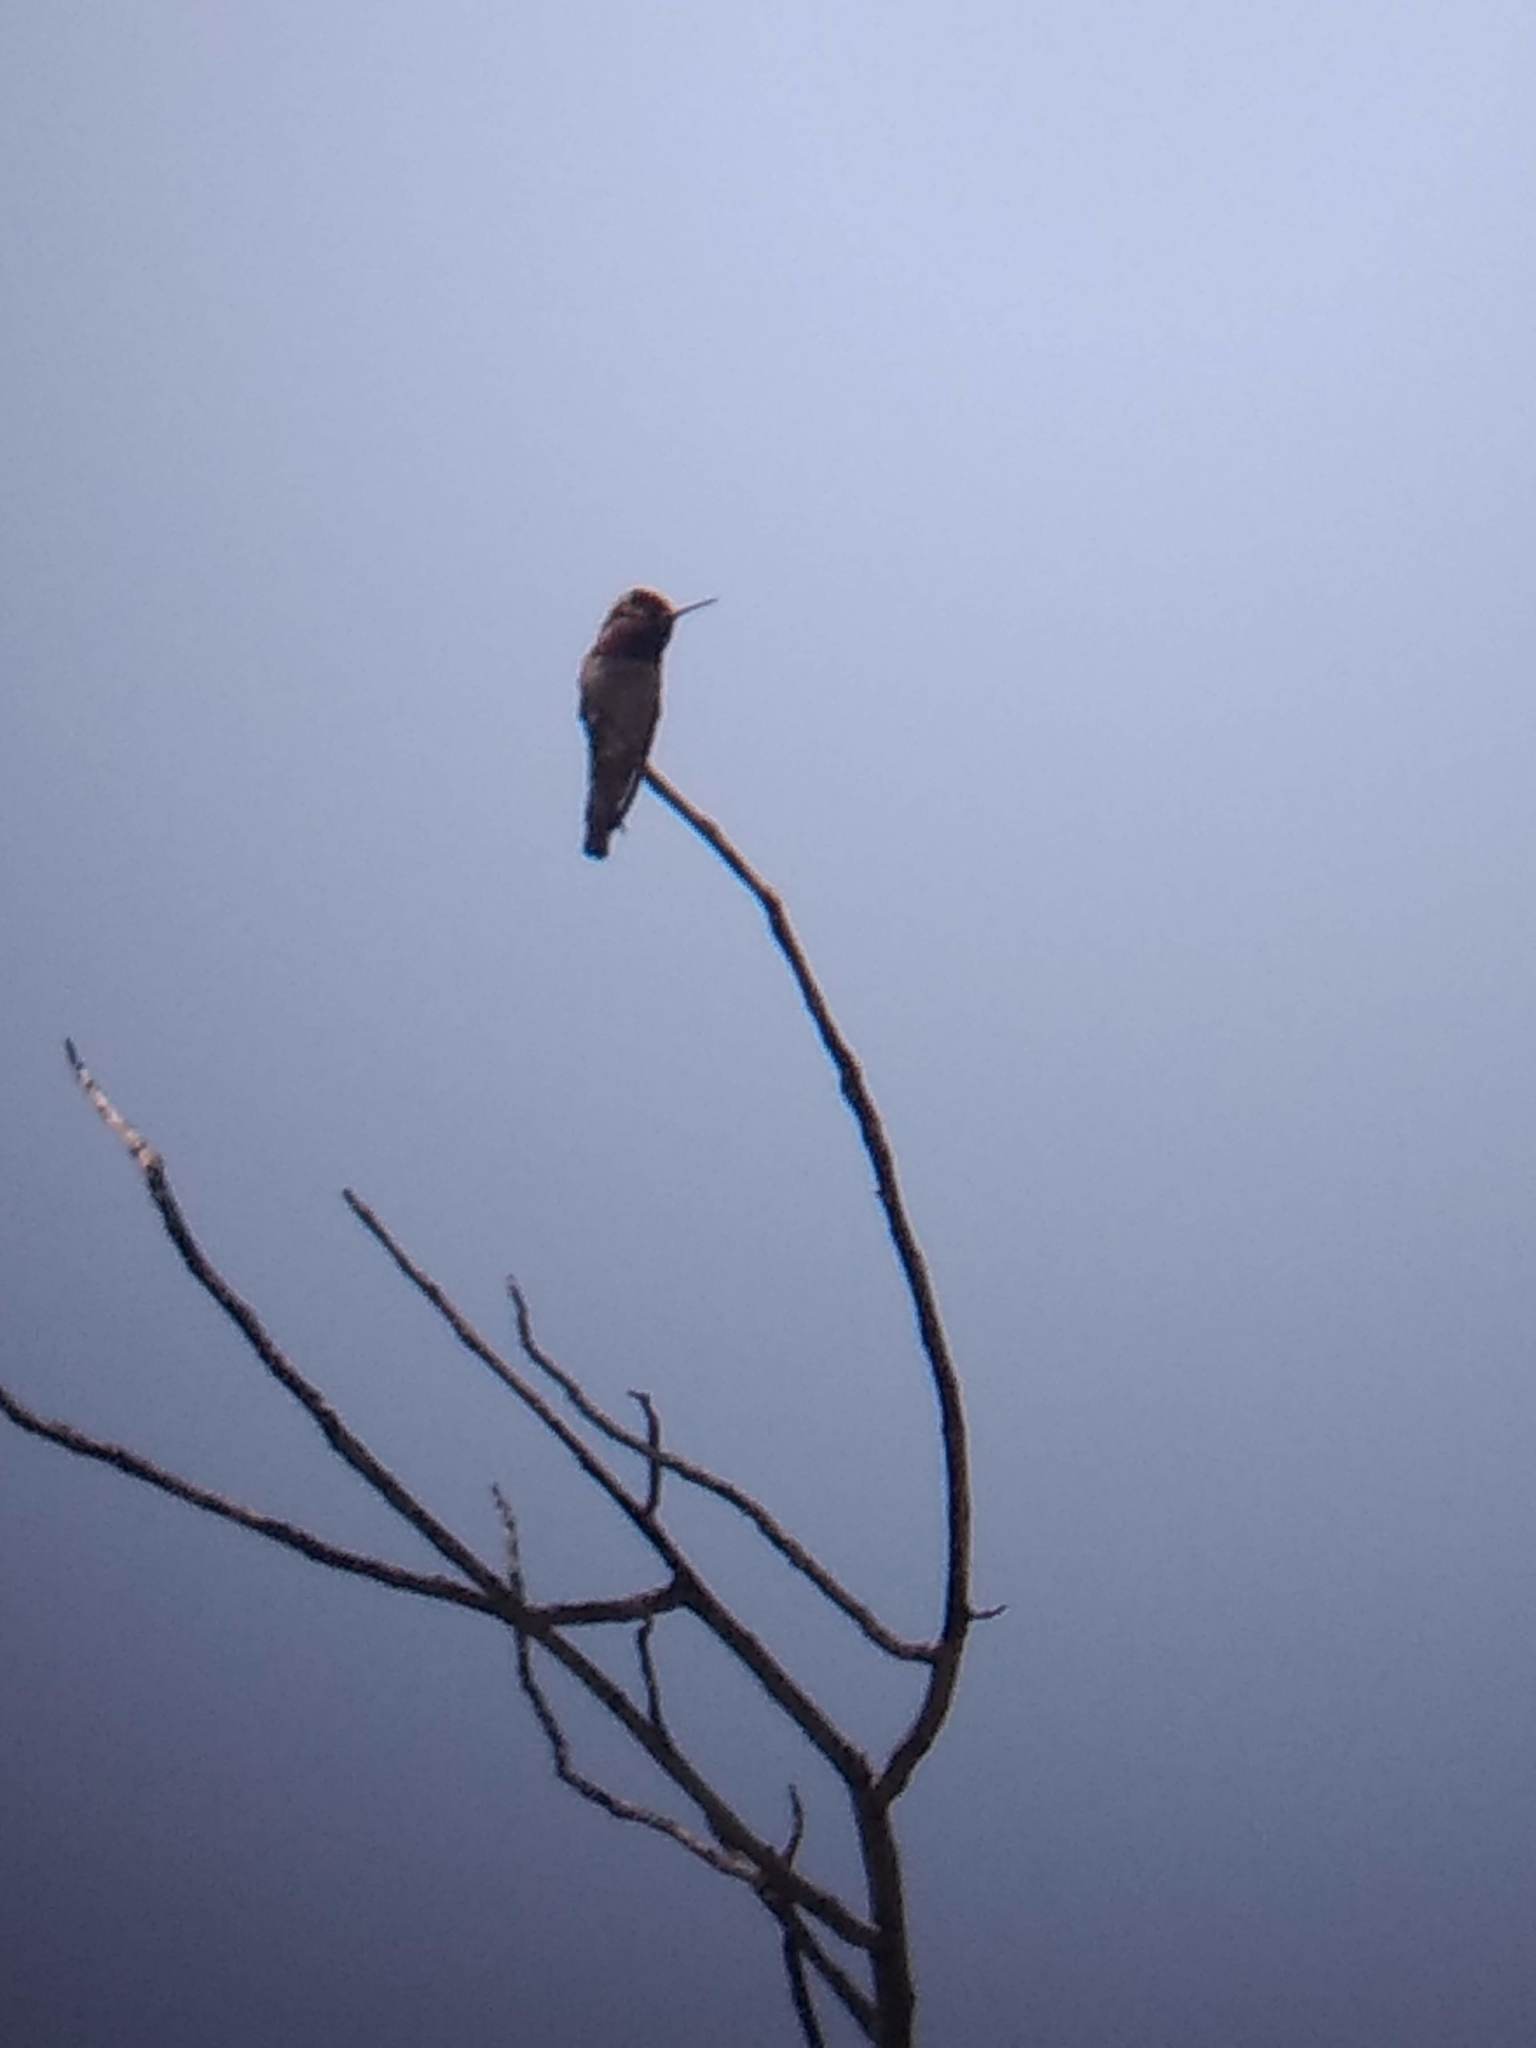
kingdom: Animalia
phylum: Chordata
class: Aves
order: Apodiformes
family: Trochilidae
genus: Calypte
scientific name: Calypte anna
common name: Anna's hummingbird
